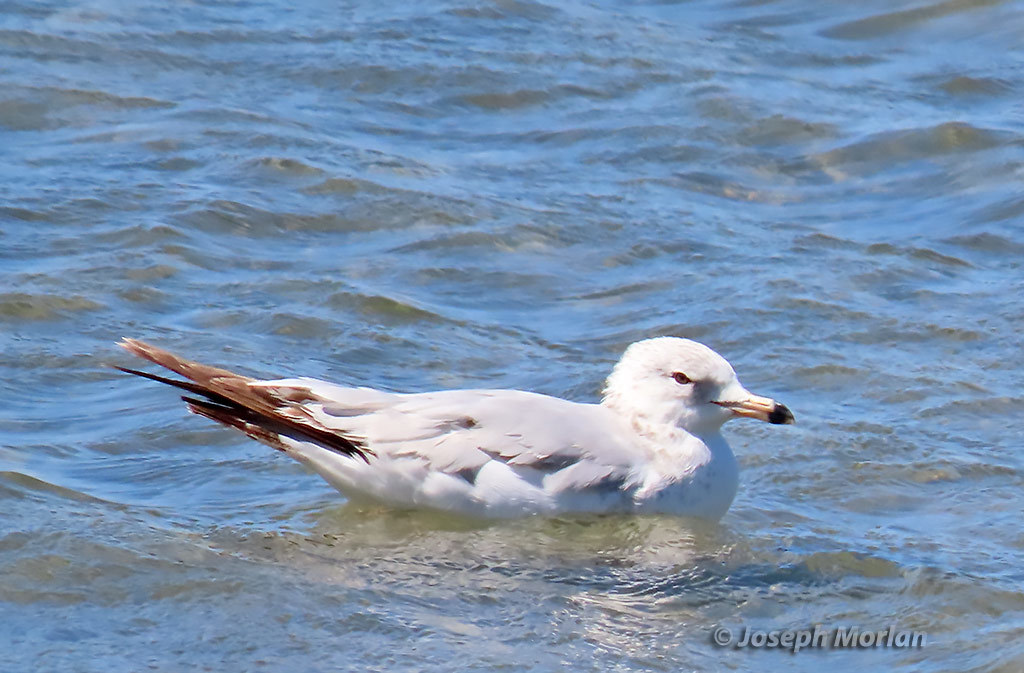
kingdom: Animalia
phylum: Chordata
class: Aves
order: Charadriiformes
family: Laridae
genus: Larus
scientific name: Larus delawarensis
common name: Ring-billed gull
